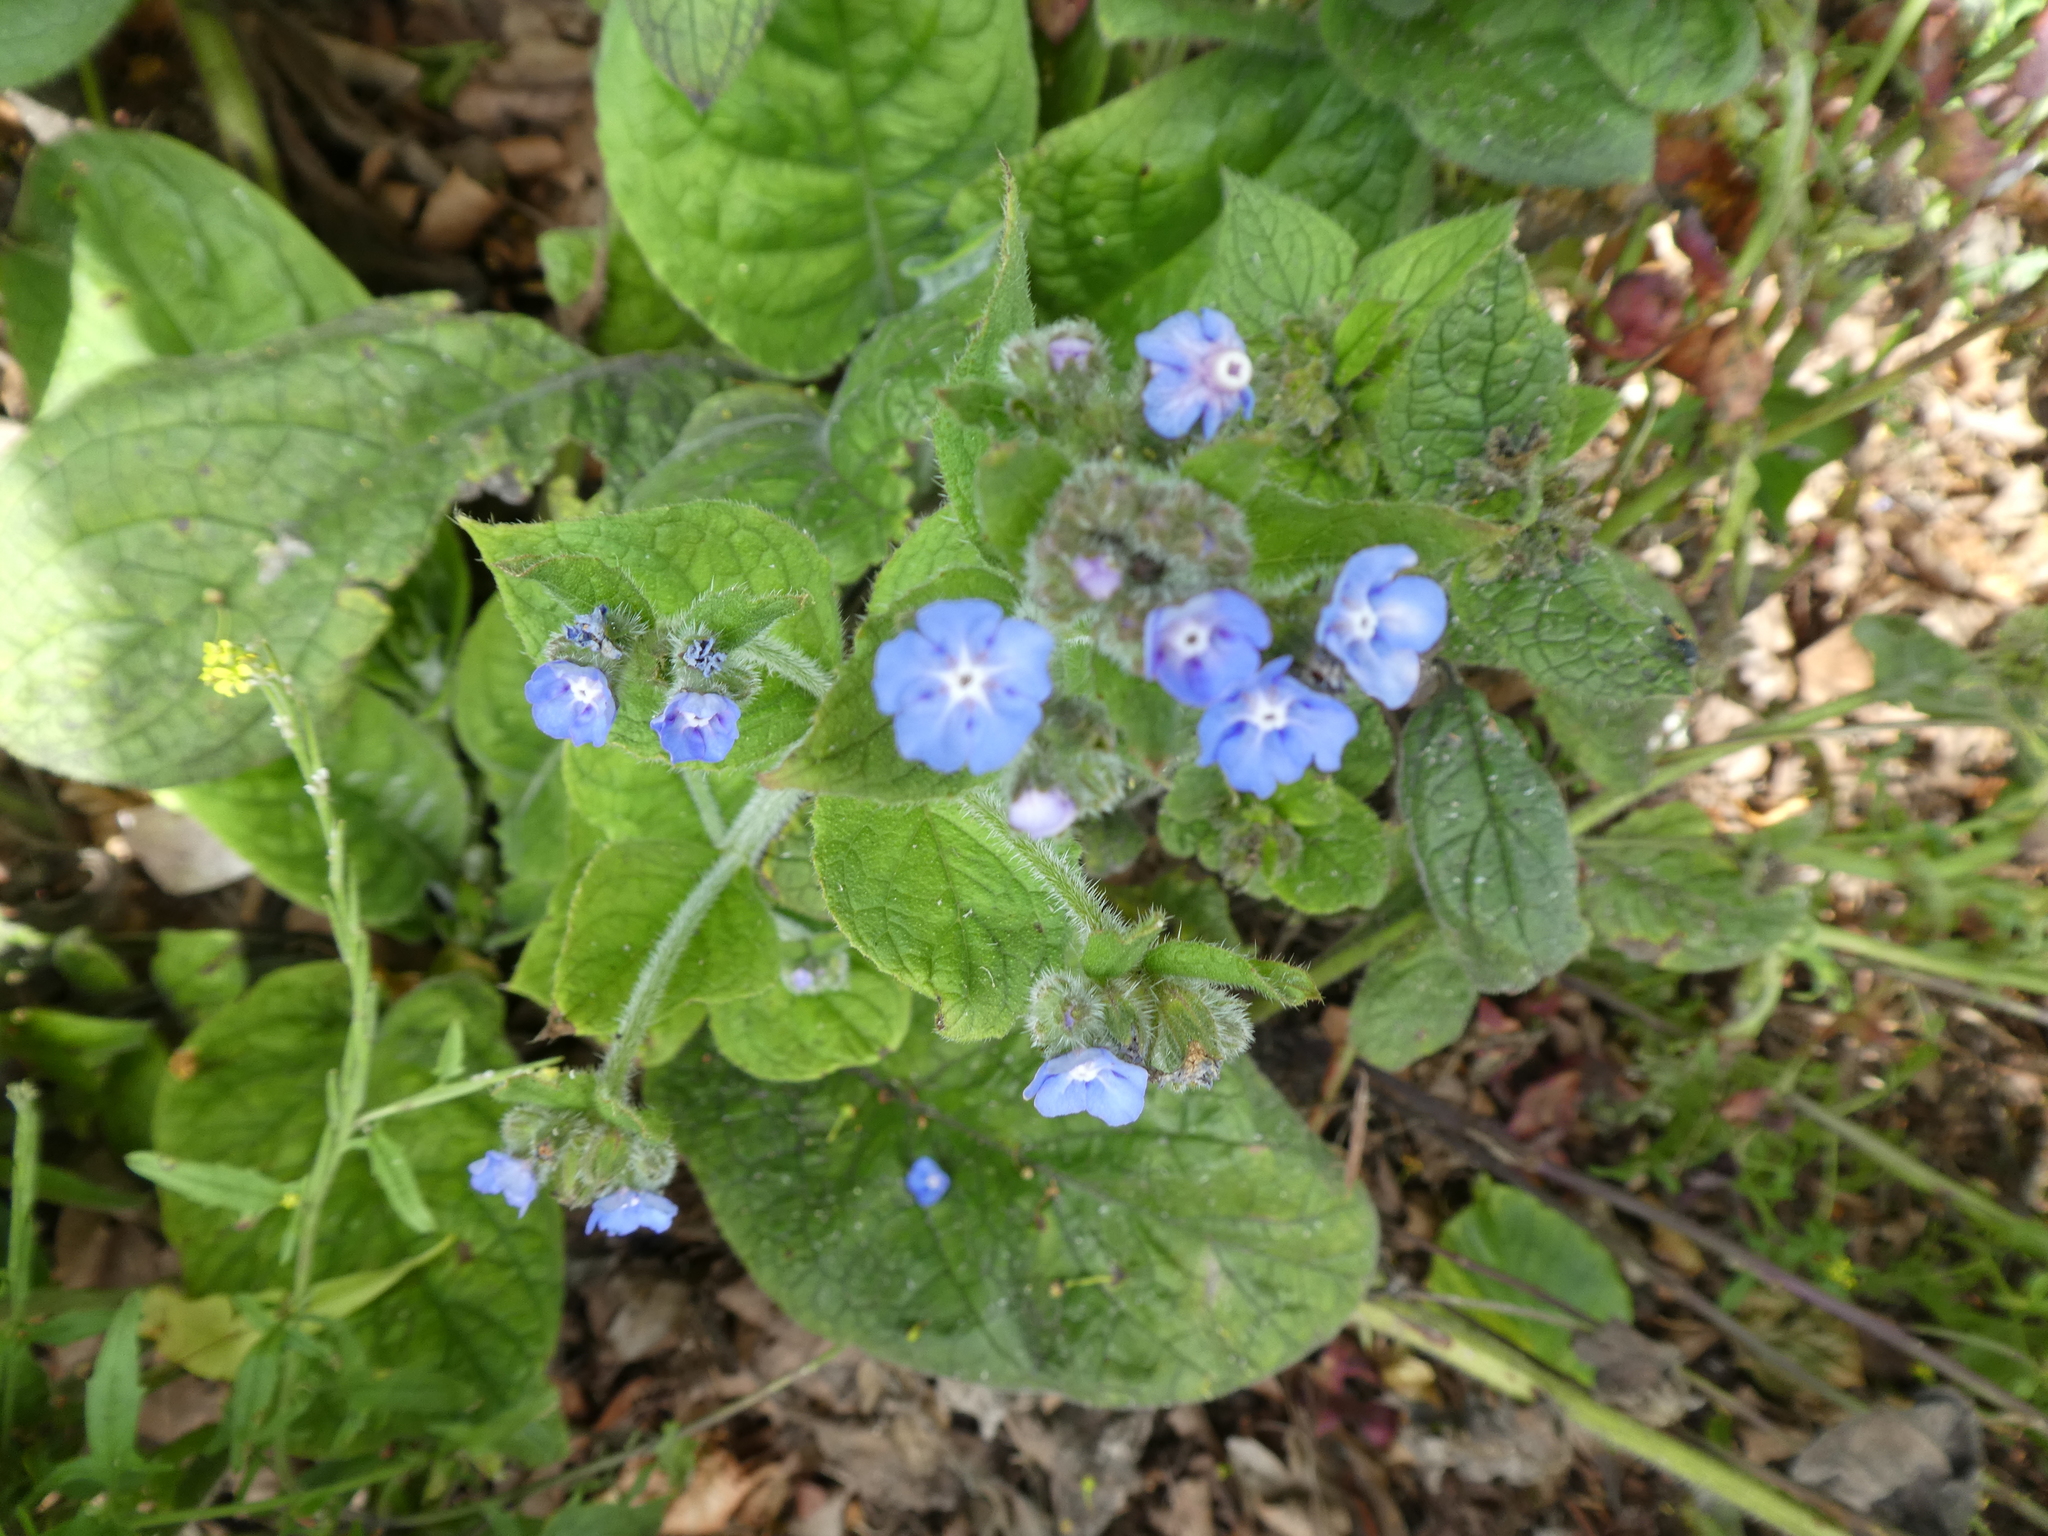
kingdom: Plantae
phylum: Tracheophyta
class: Magnoliopsida
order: Boraginales
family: Boraginaceae
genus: Pentaglottis
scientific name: Pentaglottis sempervirens
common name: Green alkanet
